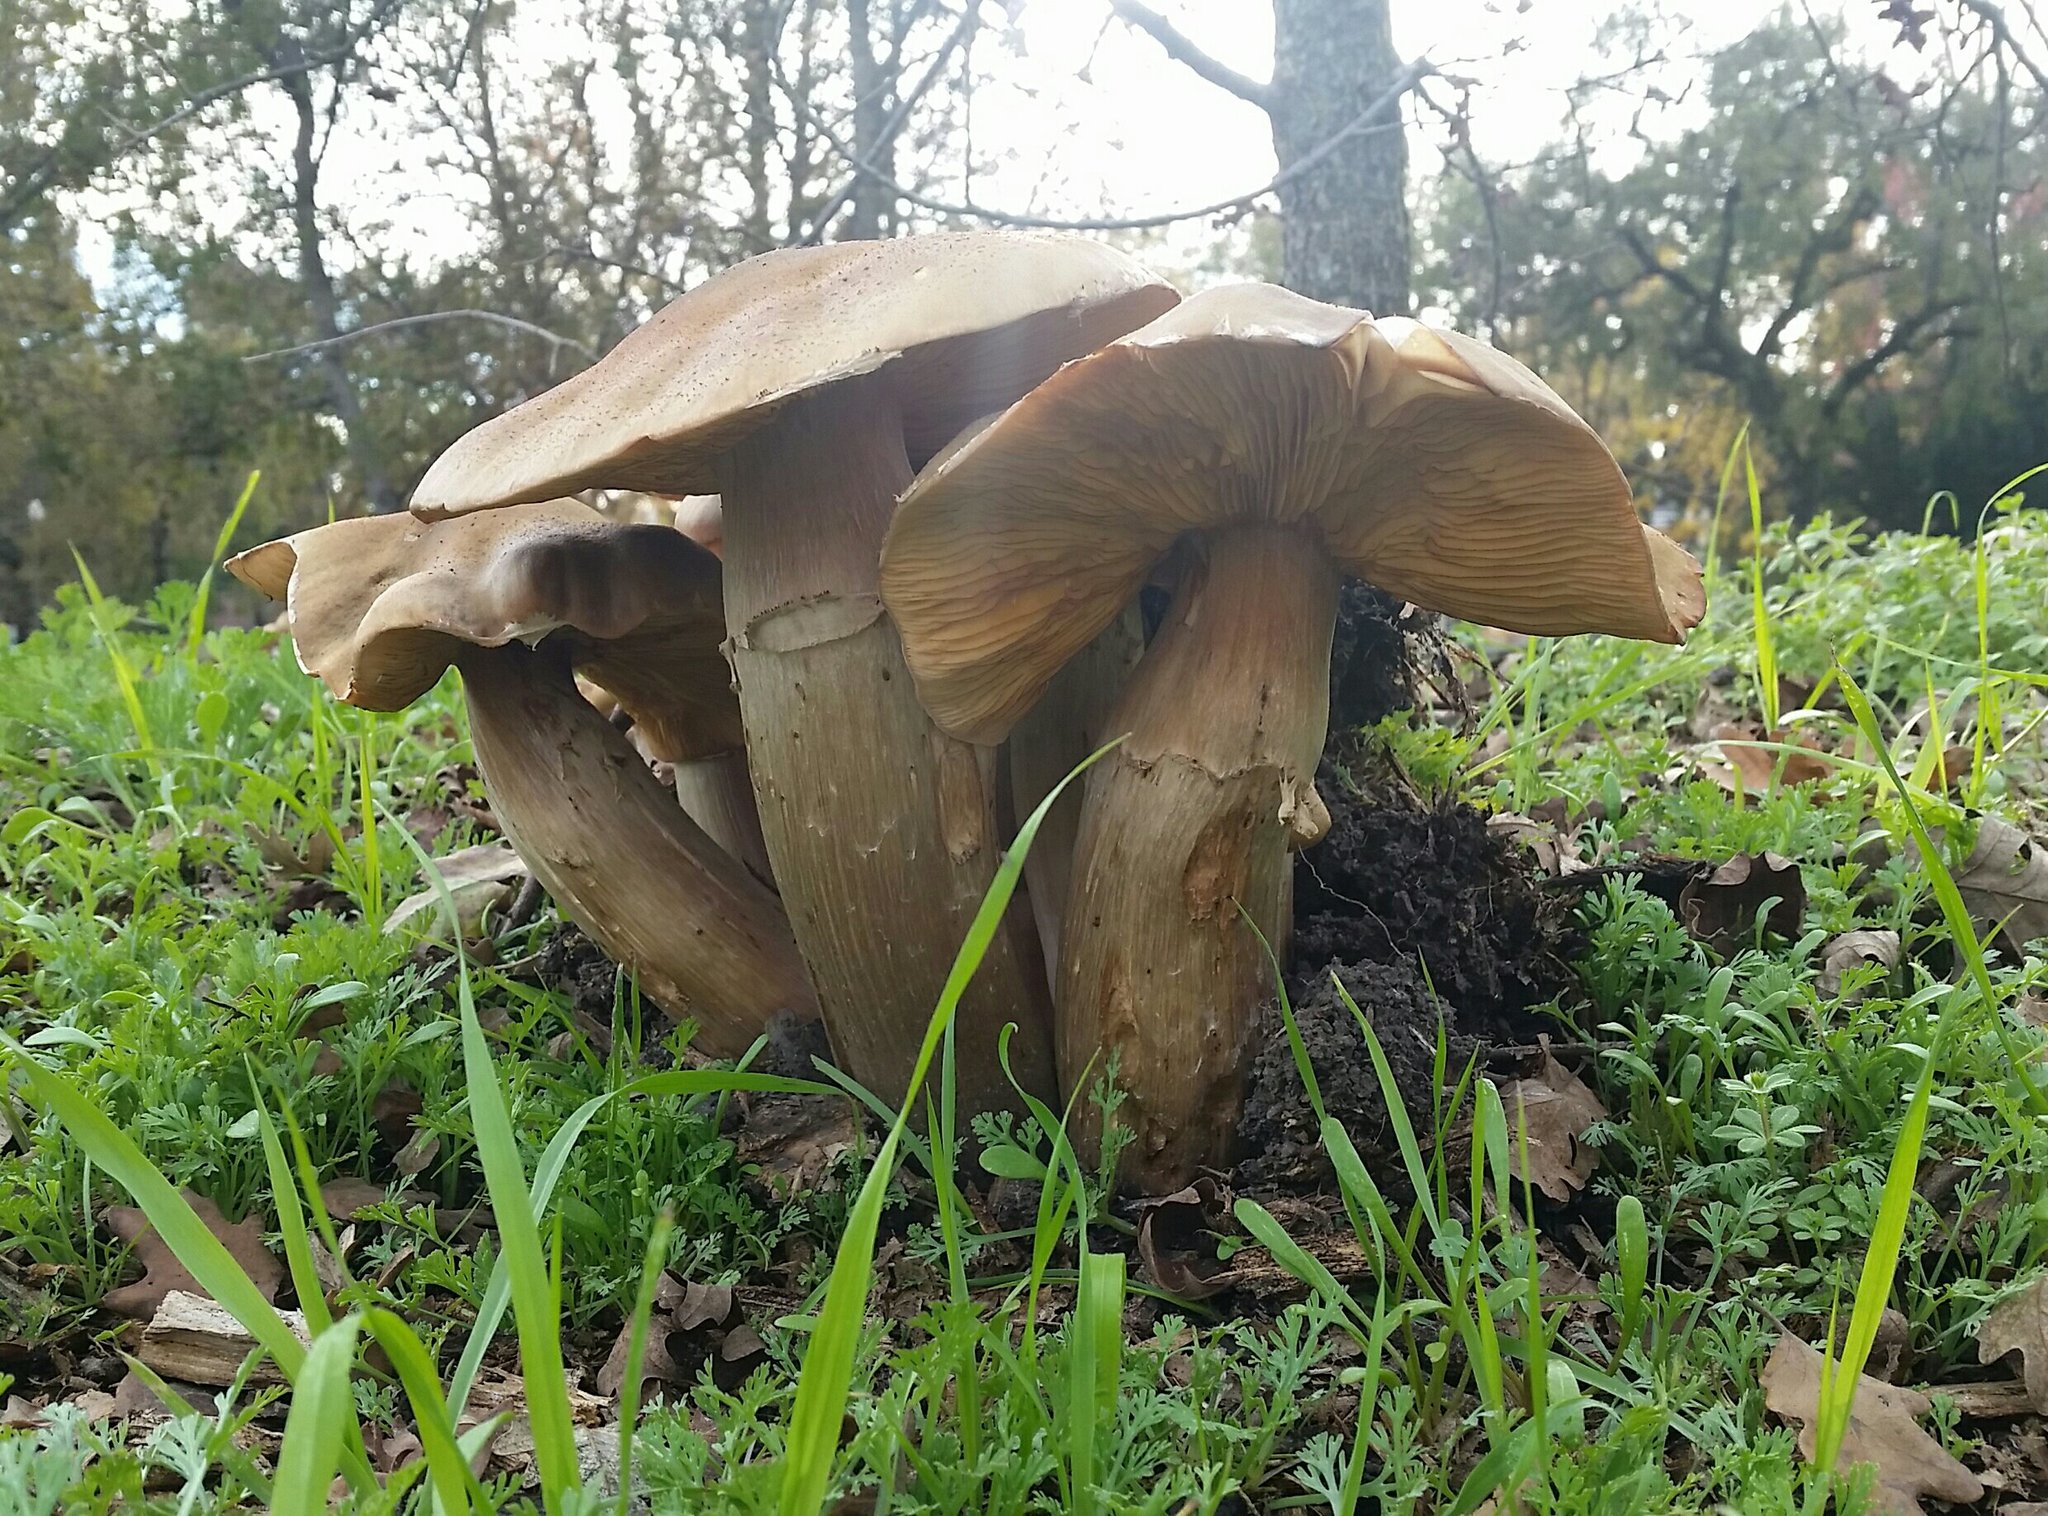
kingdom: Fungi
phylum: Basidiomycota
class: Agaricomycetes
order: Agaricales
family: Physalacriaceae
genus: Armillaria
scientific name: Armillaria mellea
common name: Honey fungus
